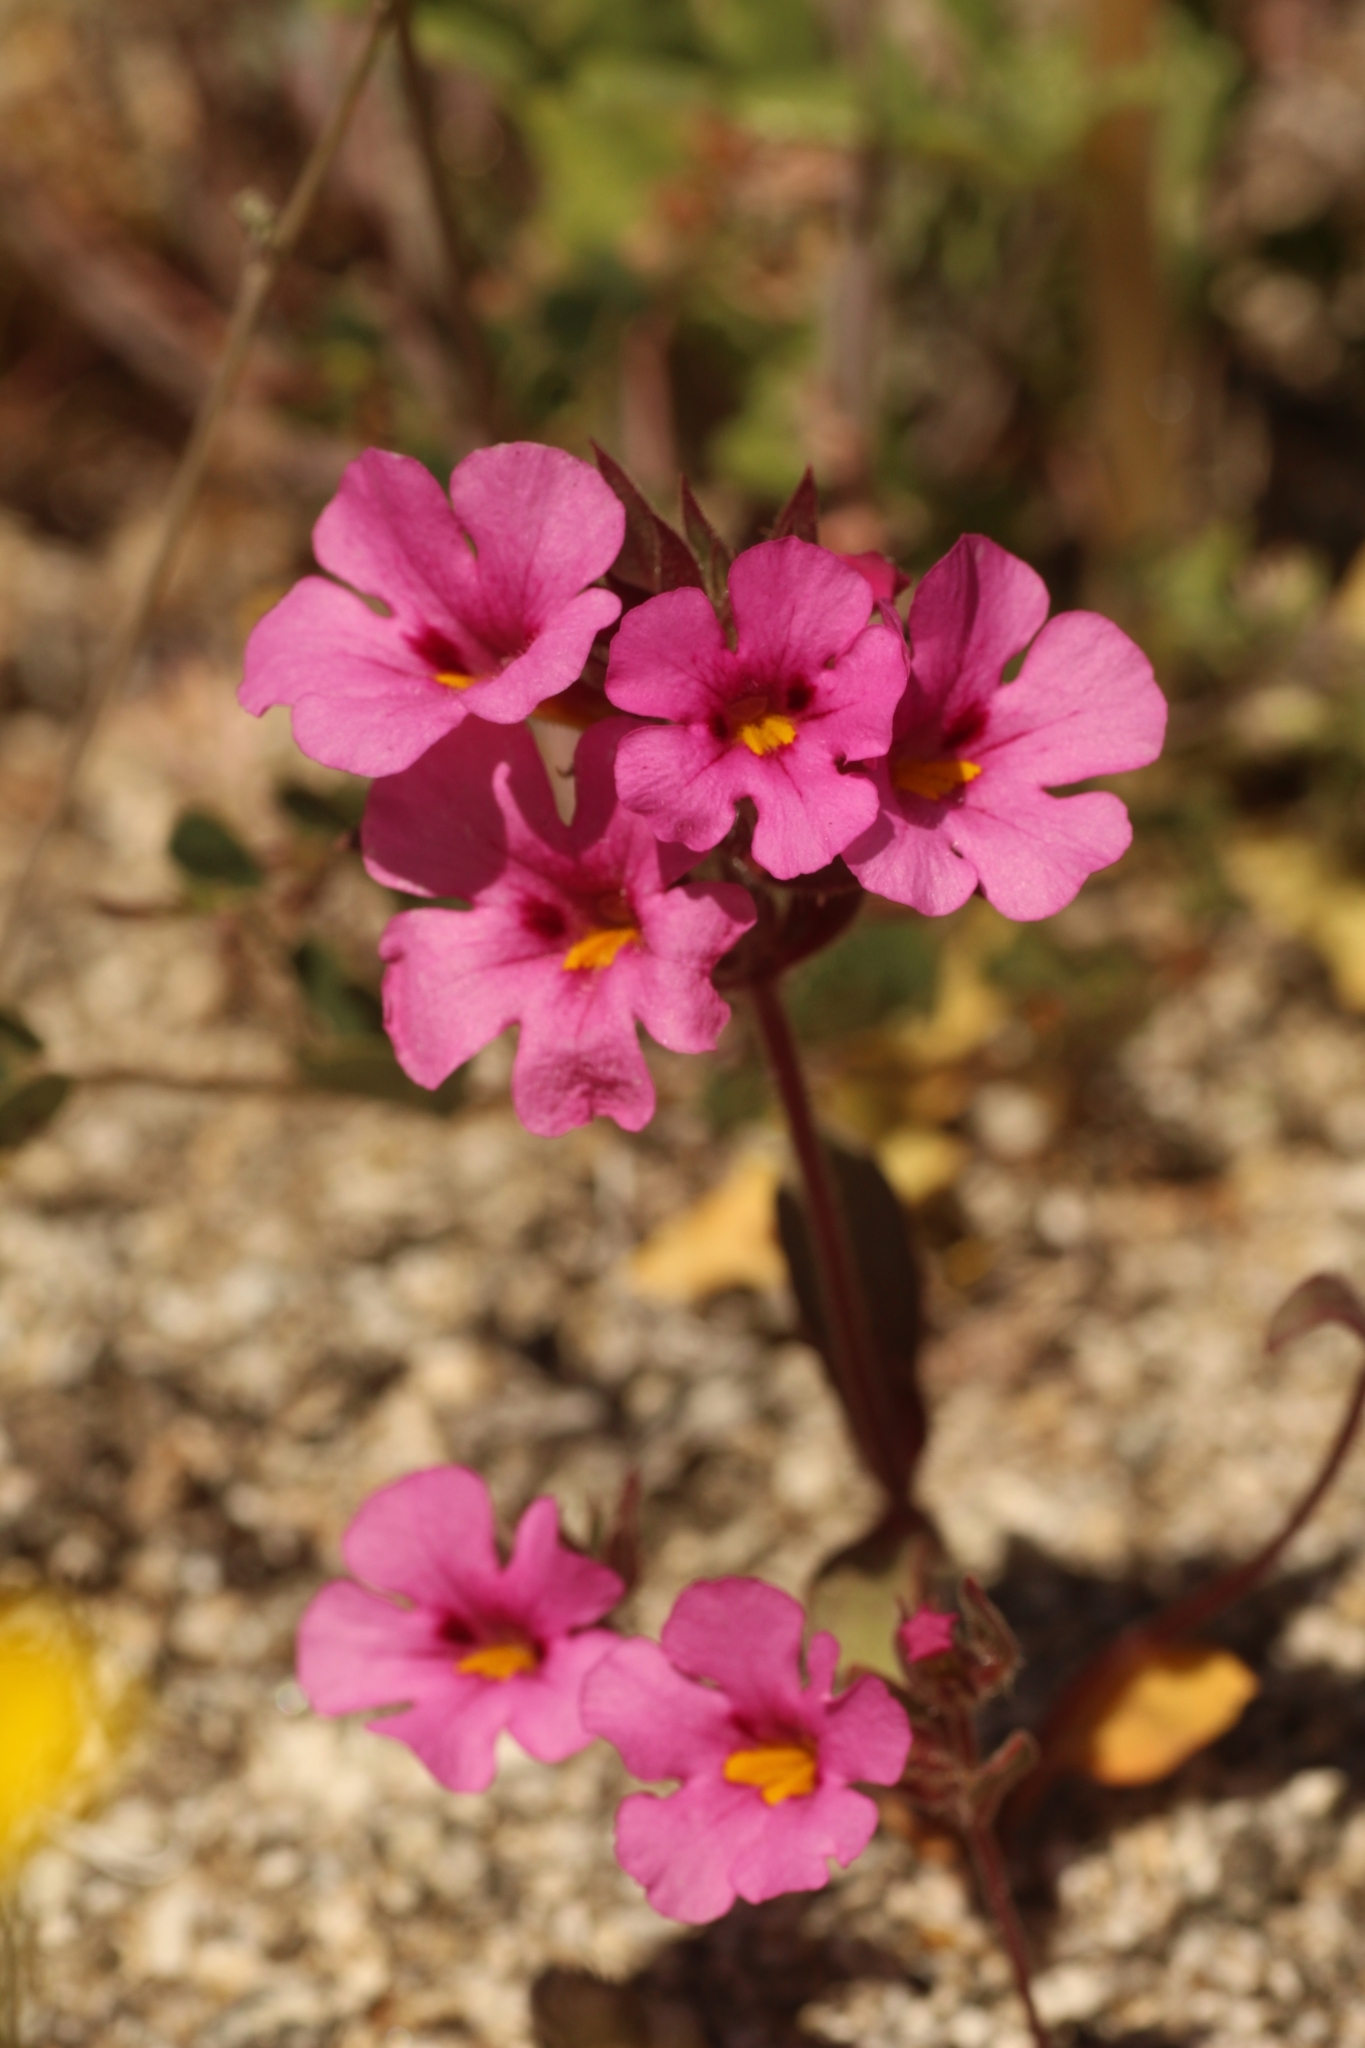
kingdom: Plantae
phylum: Tracheophyta
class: Magnoliopsida
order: Lamiales
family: Phrymaceae
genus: Diplacus
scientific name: Diplacus bigelovii
